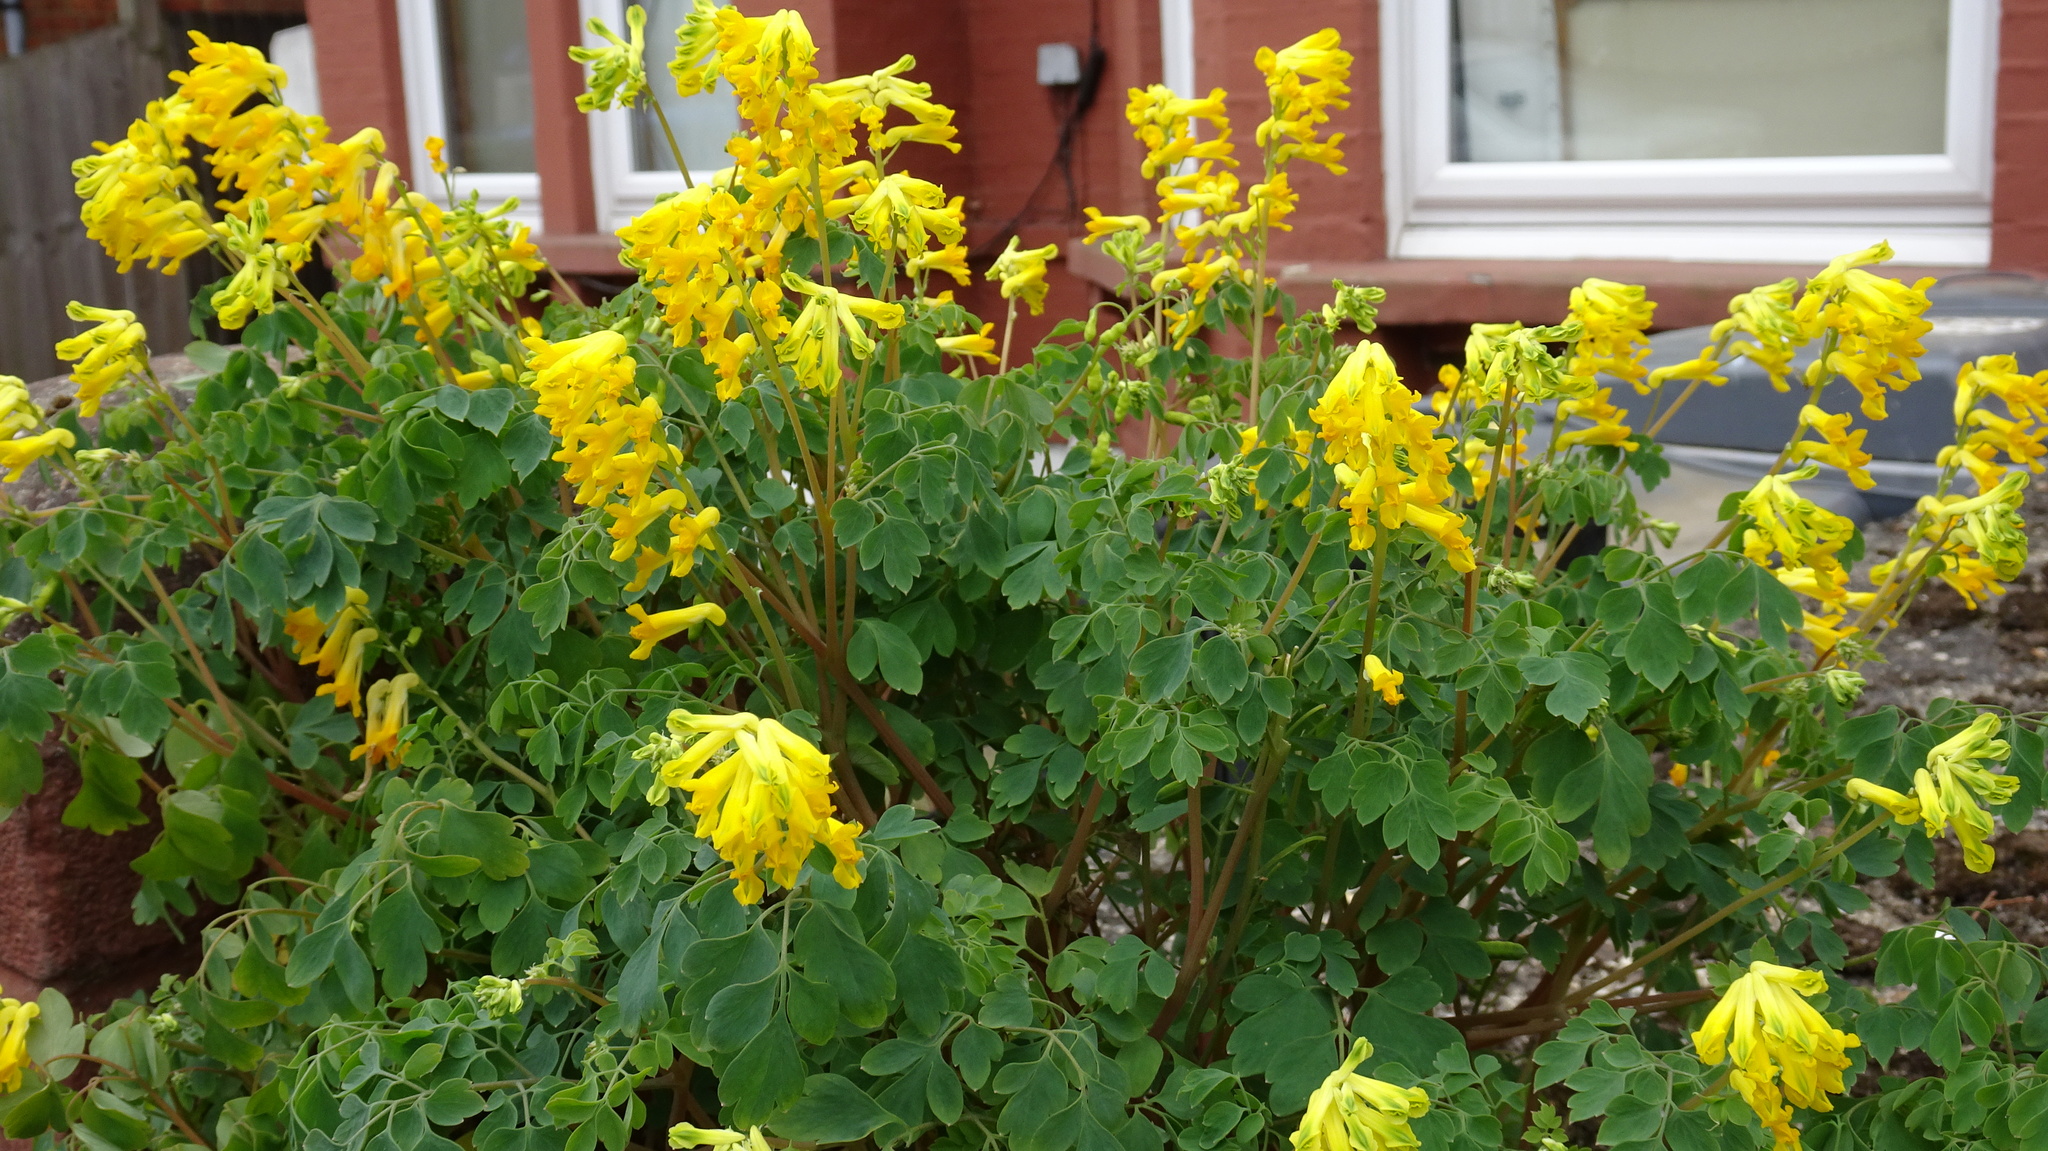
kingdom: Plantae
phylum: Tracheophyta
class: Magnoliopsida
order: Ranunculales
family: Papaveraceae
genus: Pseudofumaria
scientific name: Pseudofumaria lutea
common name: Yellow corydalis
